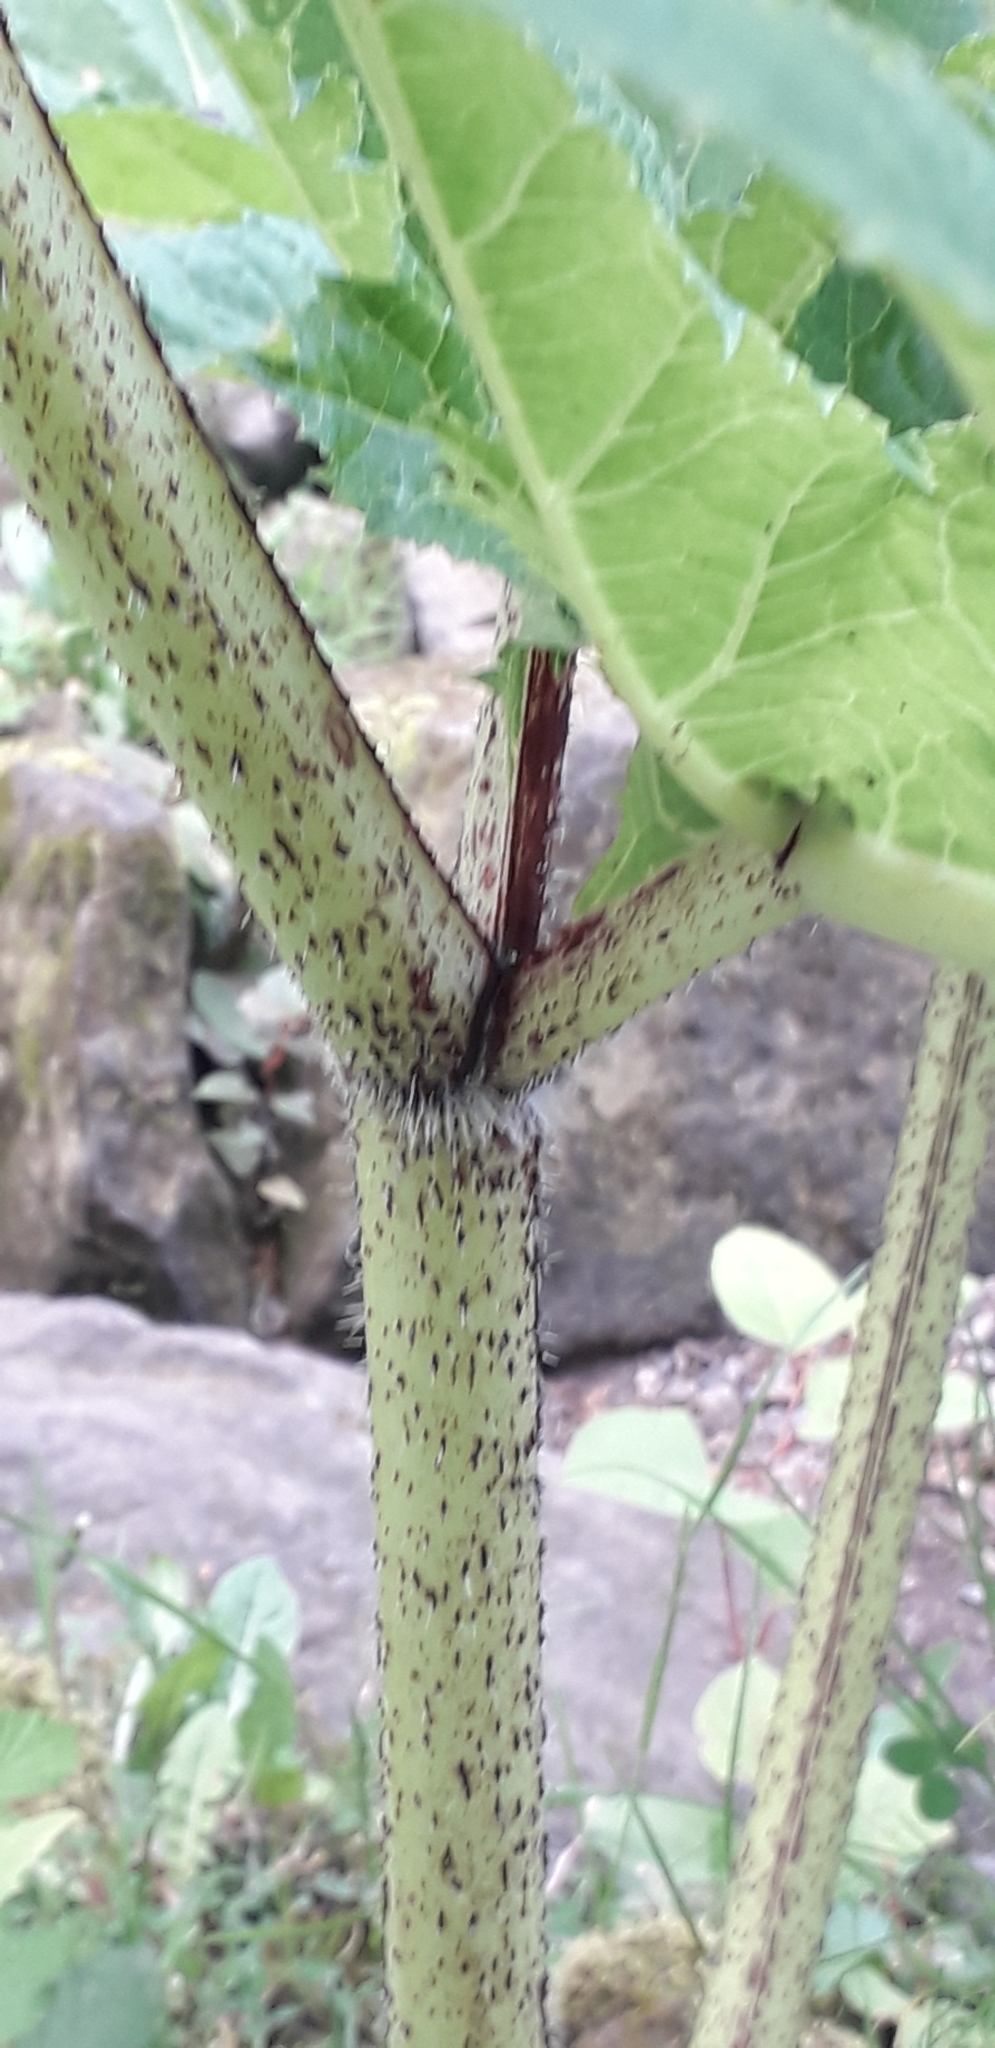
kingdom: Plantae
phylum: Tracheophyta
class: Magnoliopsida
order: Apiales
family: Apiaceae
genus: Heracleum
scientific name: Heracleum mantegazzianum
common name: Giant hogweed
